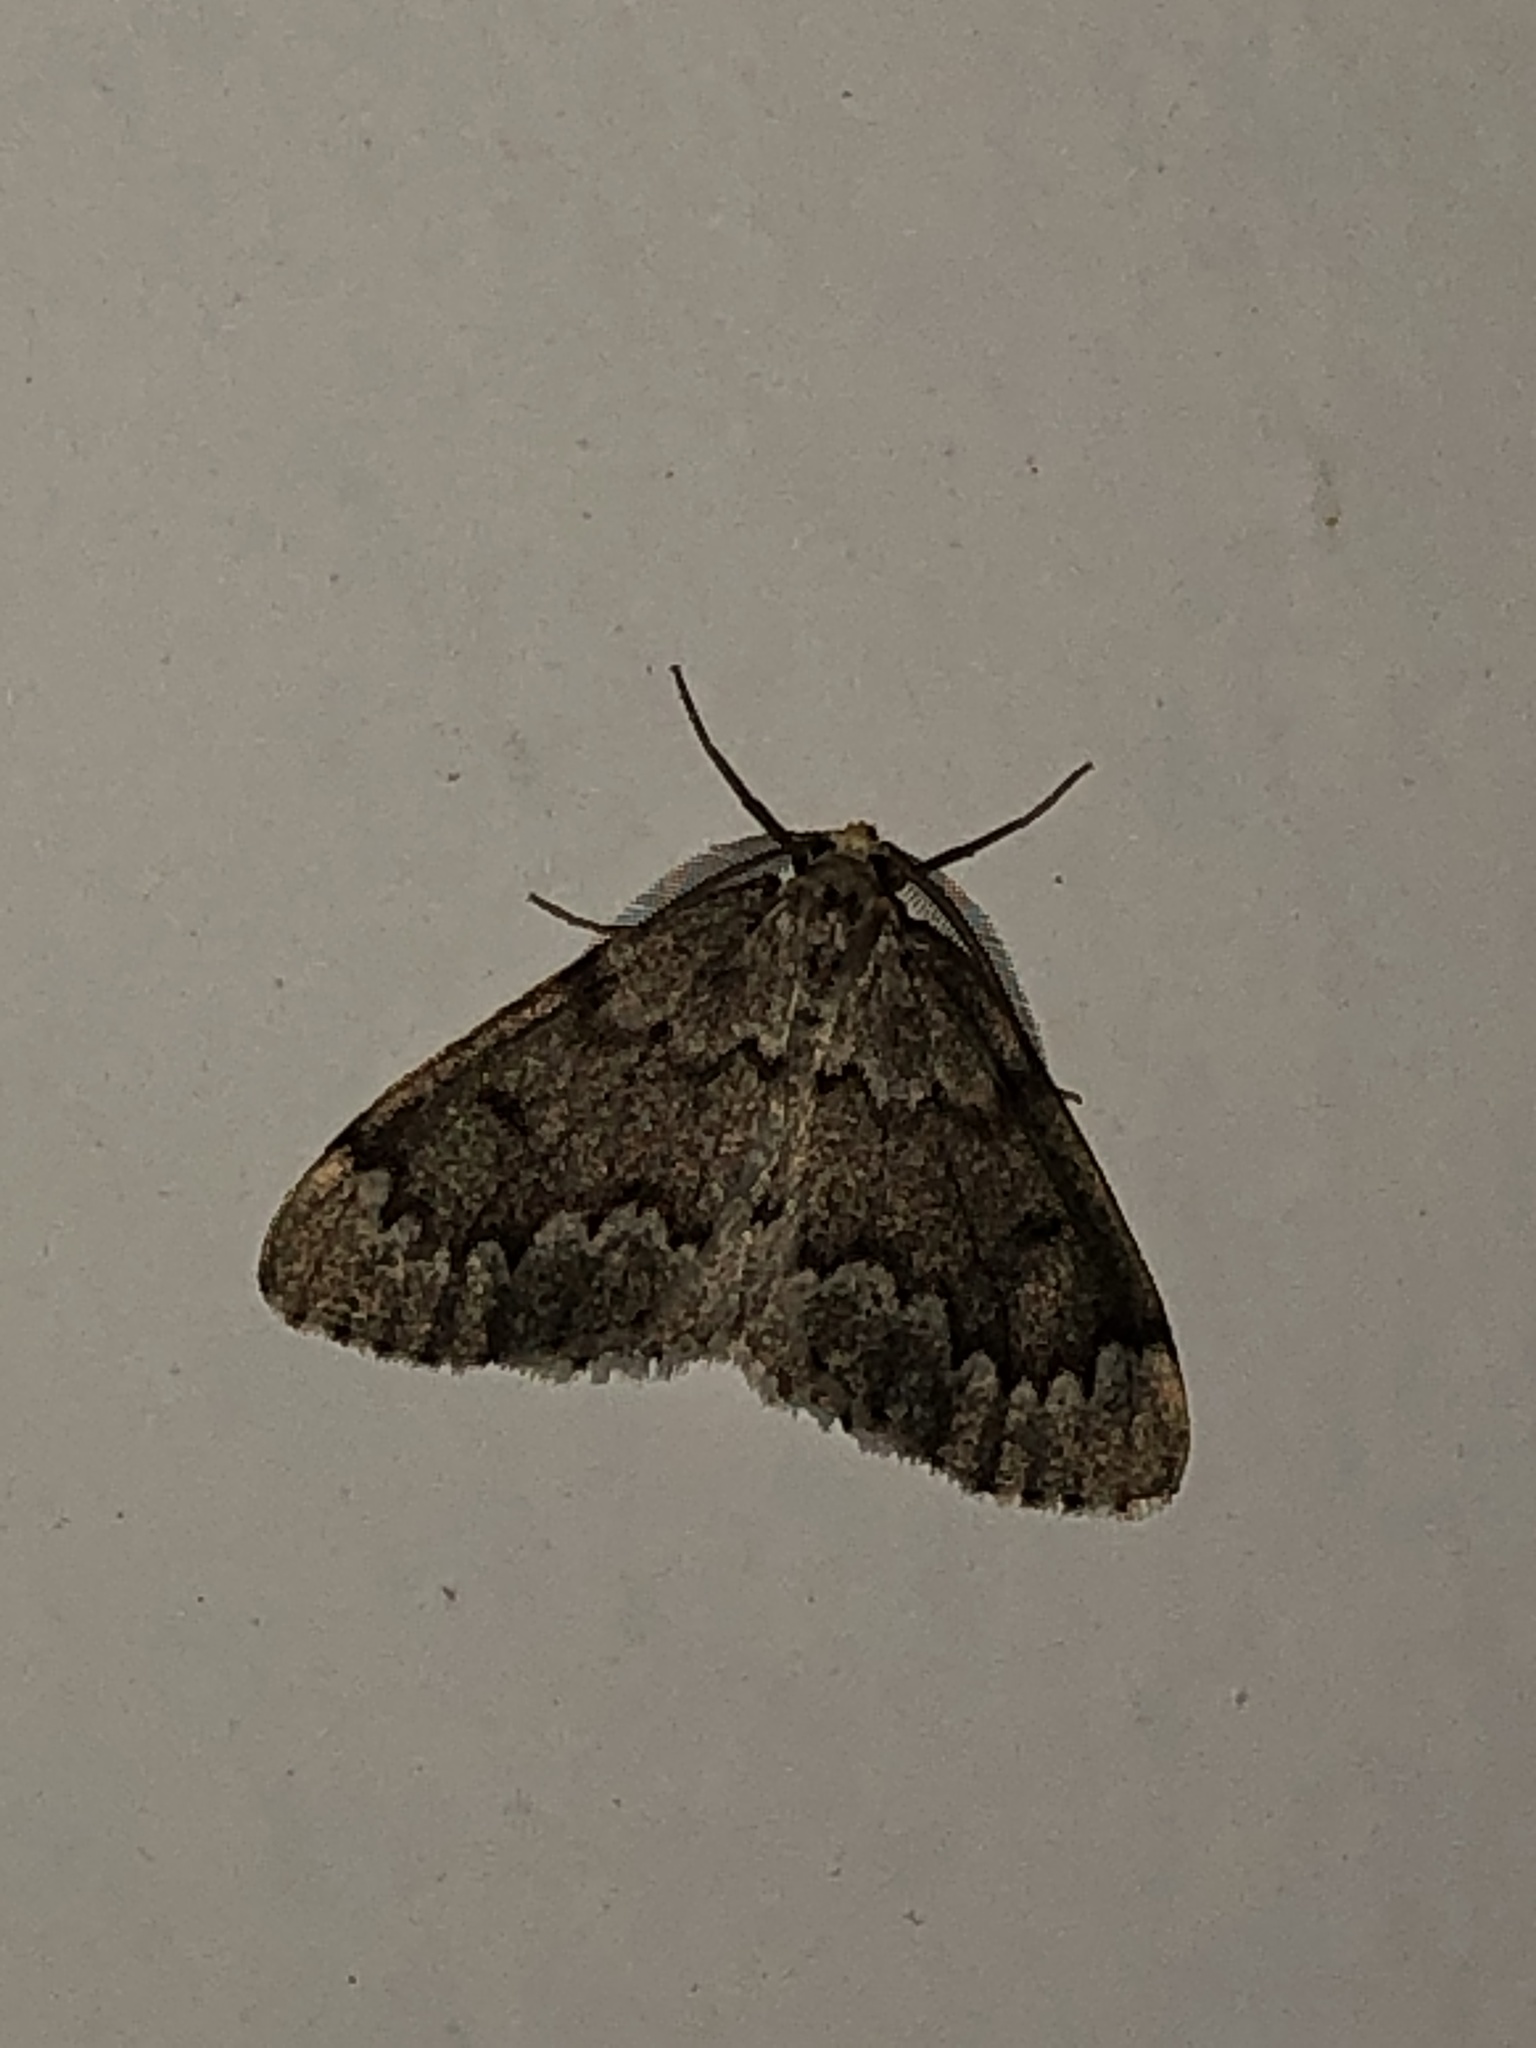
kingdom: Animalia
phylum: Arthropoda
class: Insecta
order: Lepidoptera
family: Geometridae
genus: Nepytia
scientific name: Nepytia canosaria
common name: False hemlock looper
